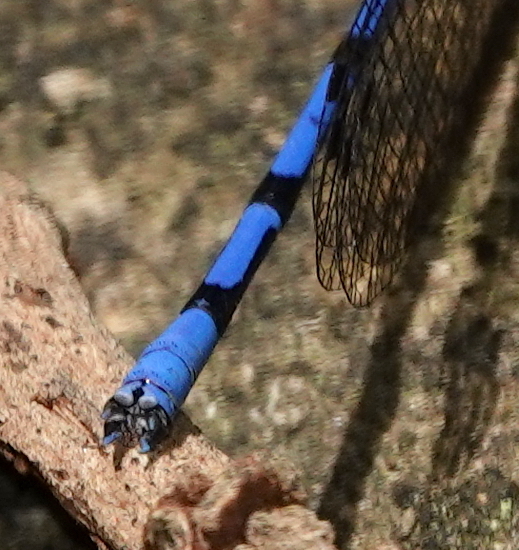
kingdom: Animalia
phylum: Arthropoda
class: Insecta
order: Odonata
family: Coenagrionidae
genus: Argia
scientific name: Argia elongata
